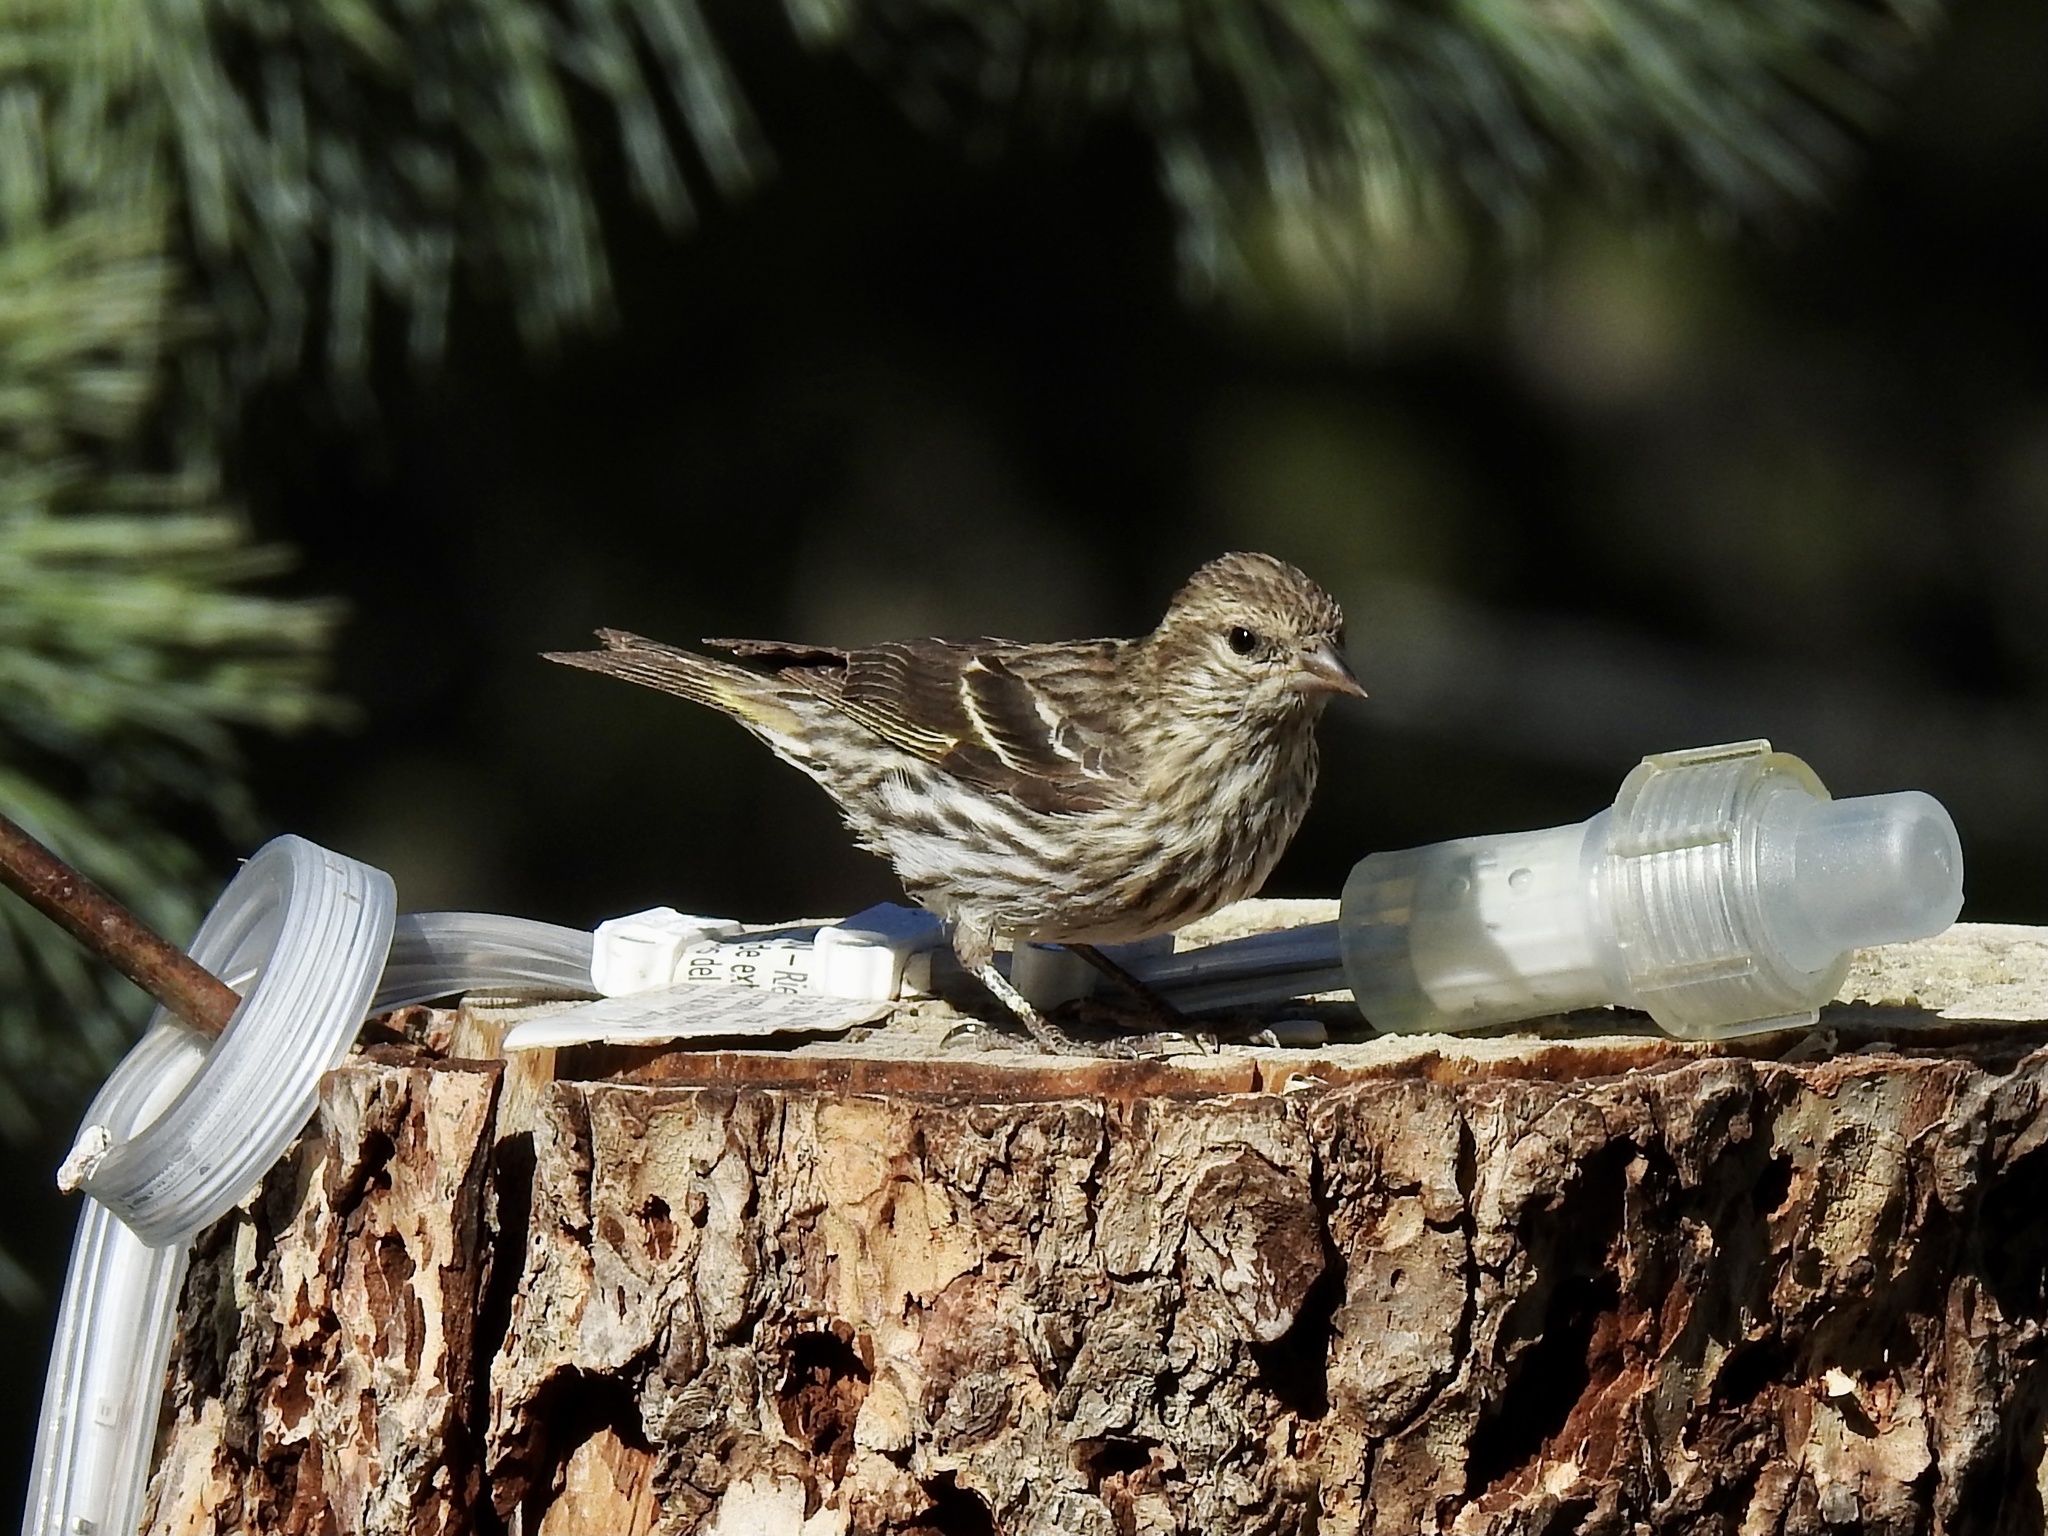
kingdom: Animalia
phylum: Chordata
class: Aves
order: Passeriformes
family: Fringillidae
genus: Spinus
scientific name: Spinus pinus
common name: Pine siskin
